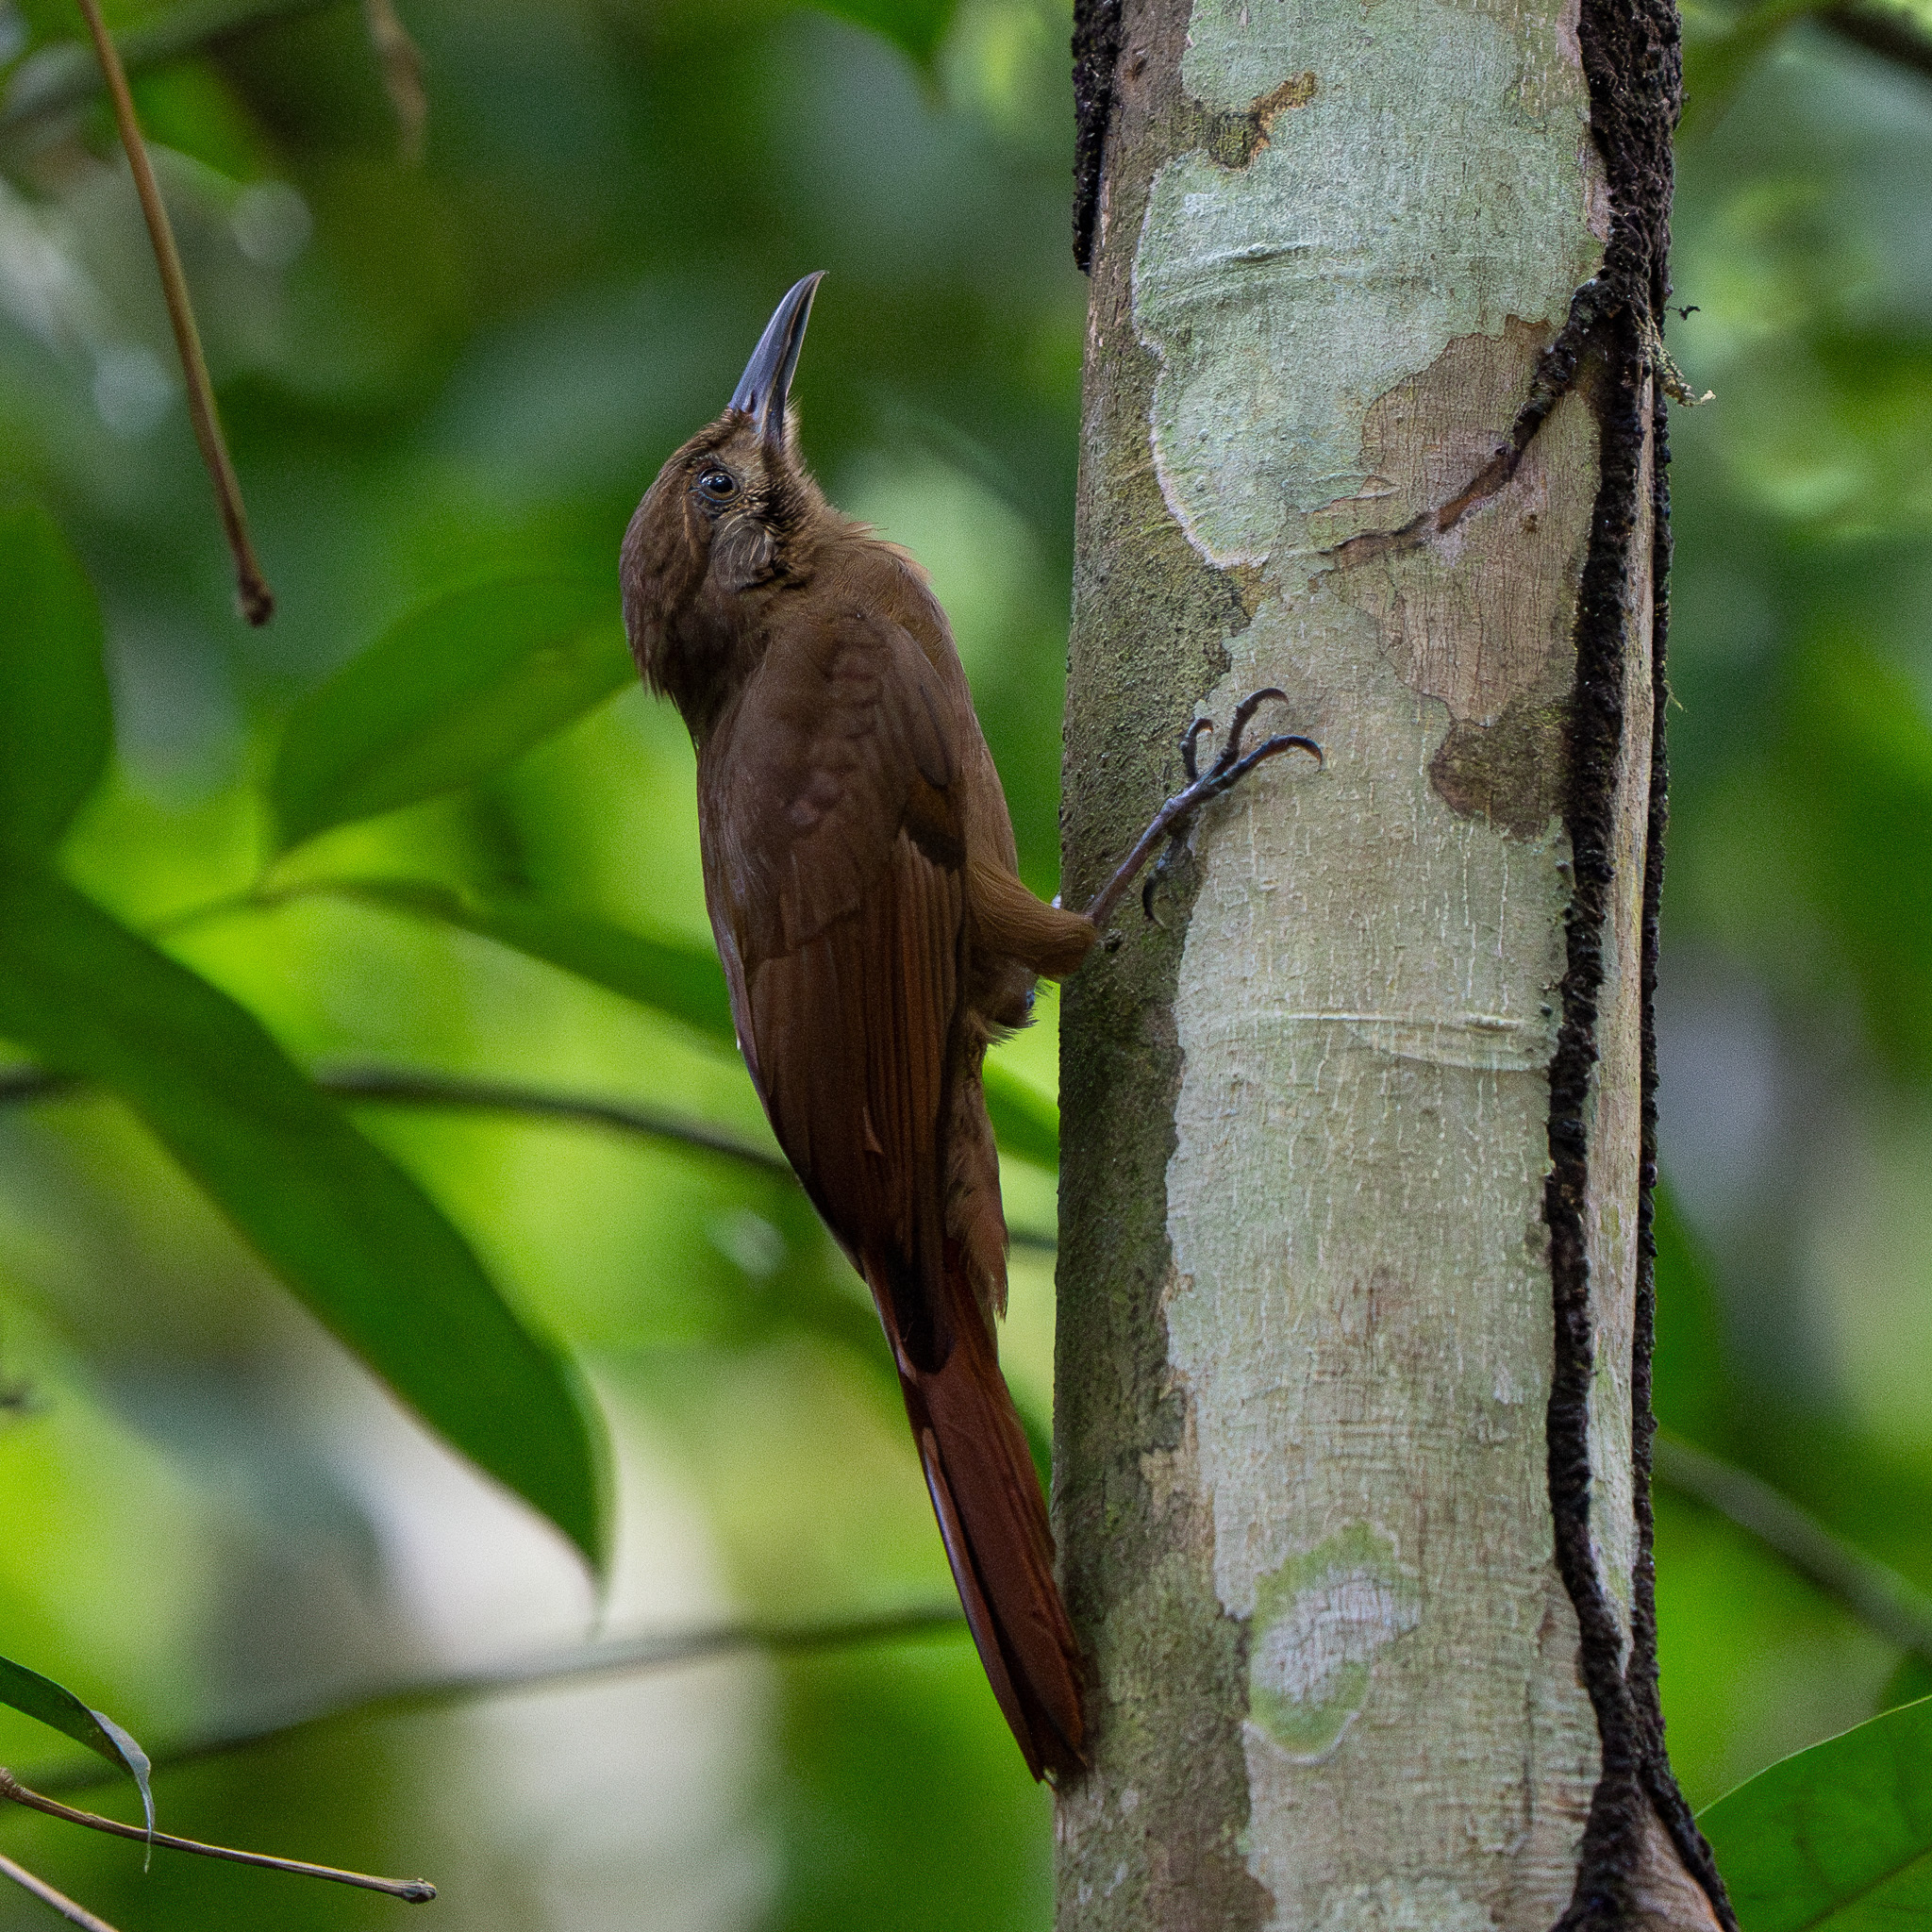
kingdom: Animalia
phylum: Chordata
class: Aves
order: Passeriformes
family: Furnariidae
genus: Dendrocincla
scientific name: Dendrocincla fuliginosa
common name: Plain-brown woodcreeper
